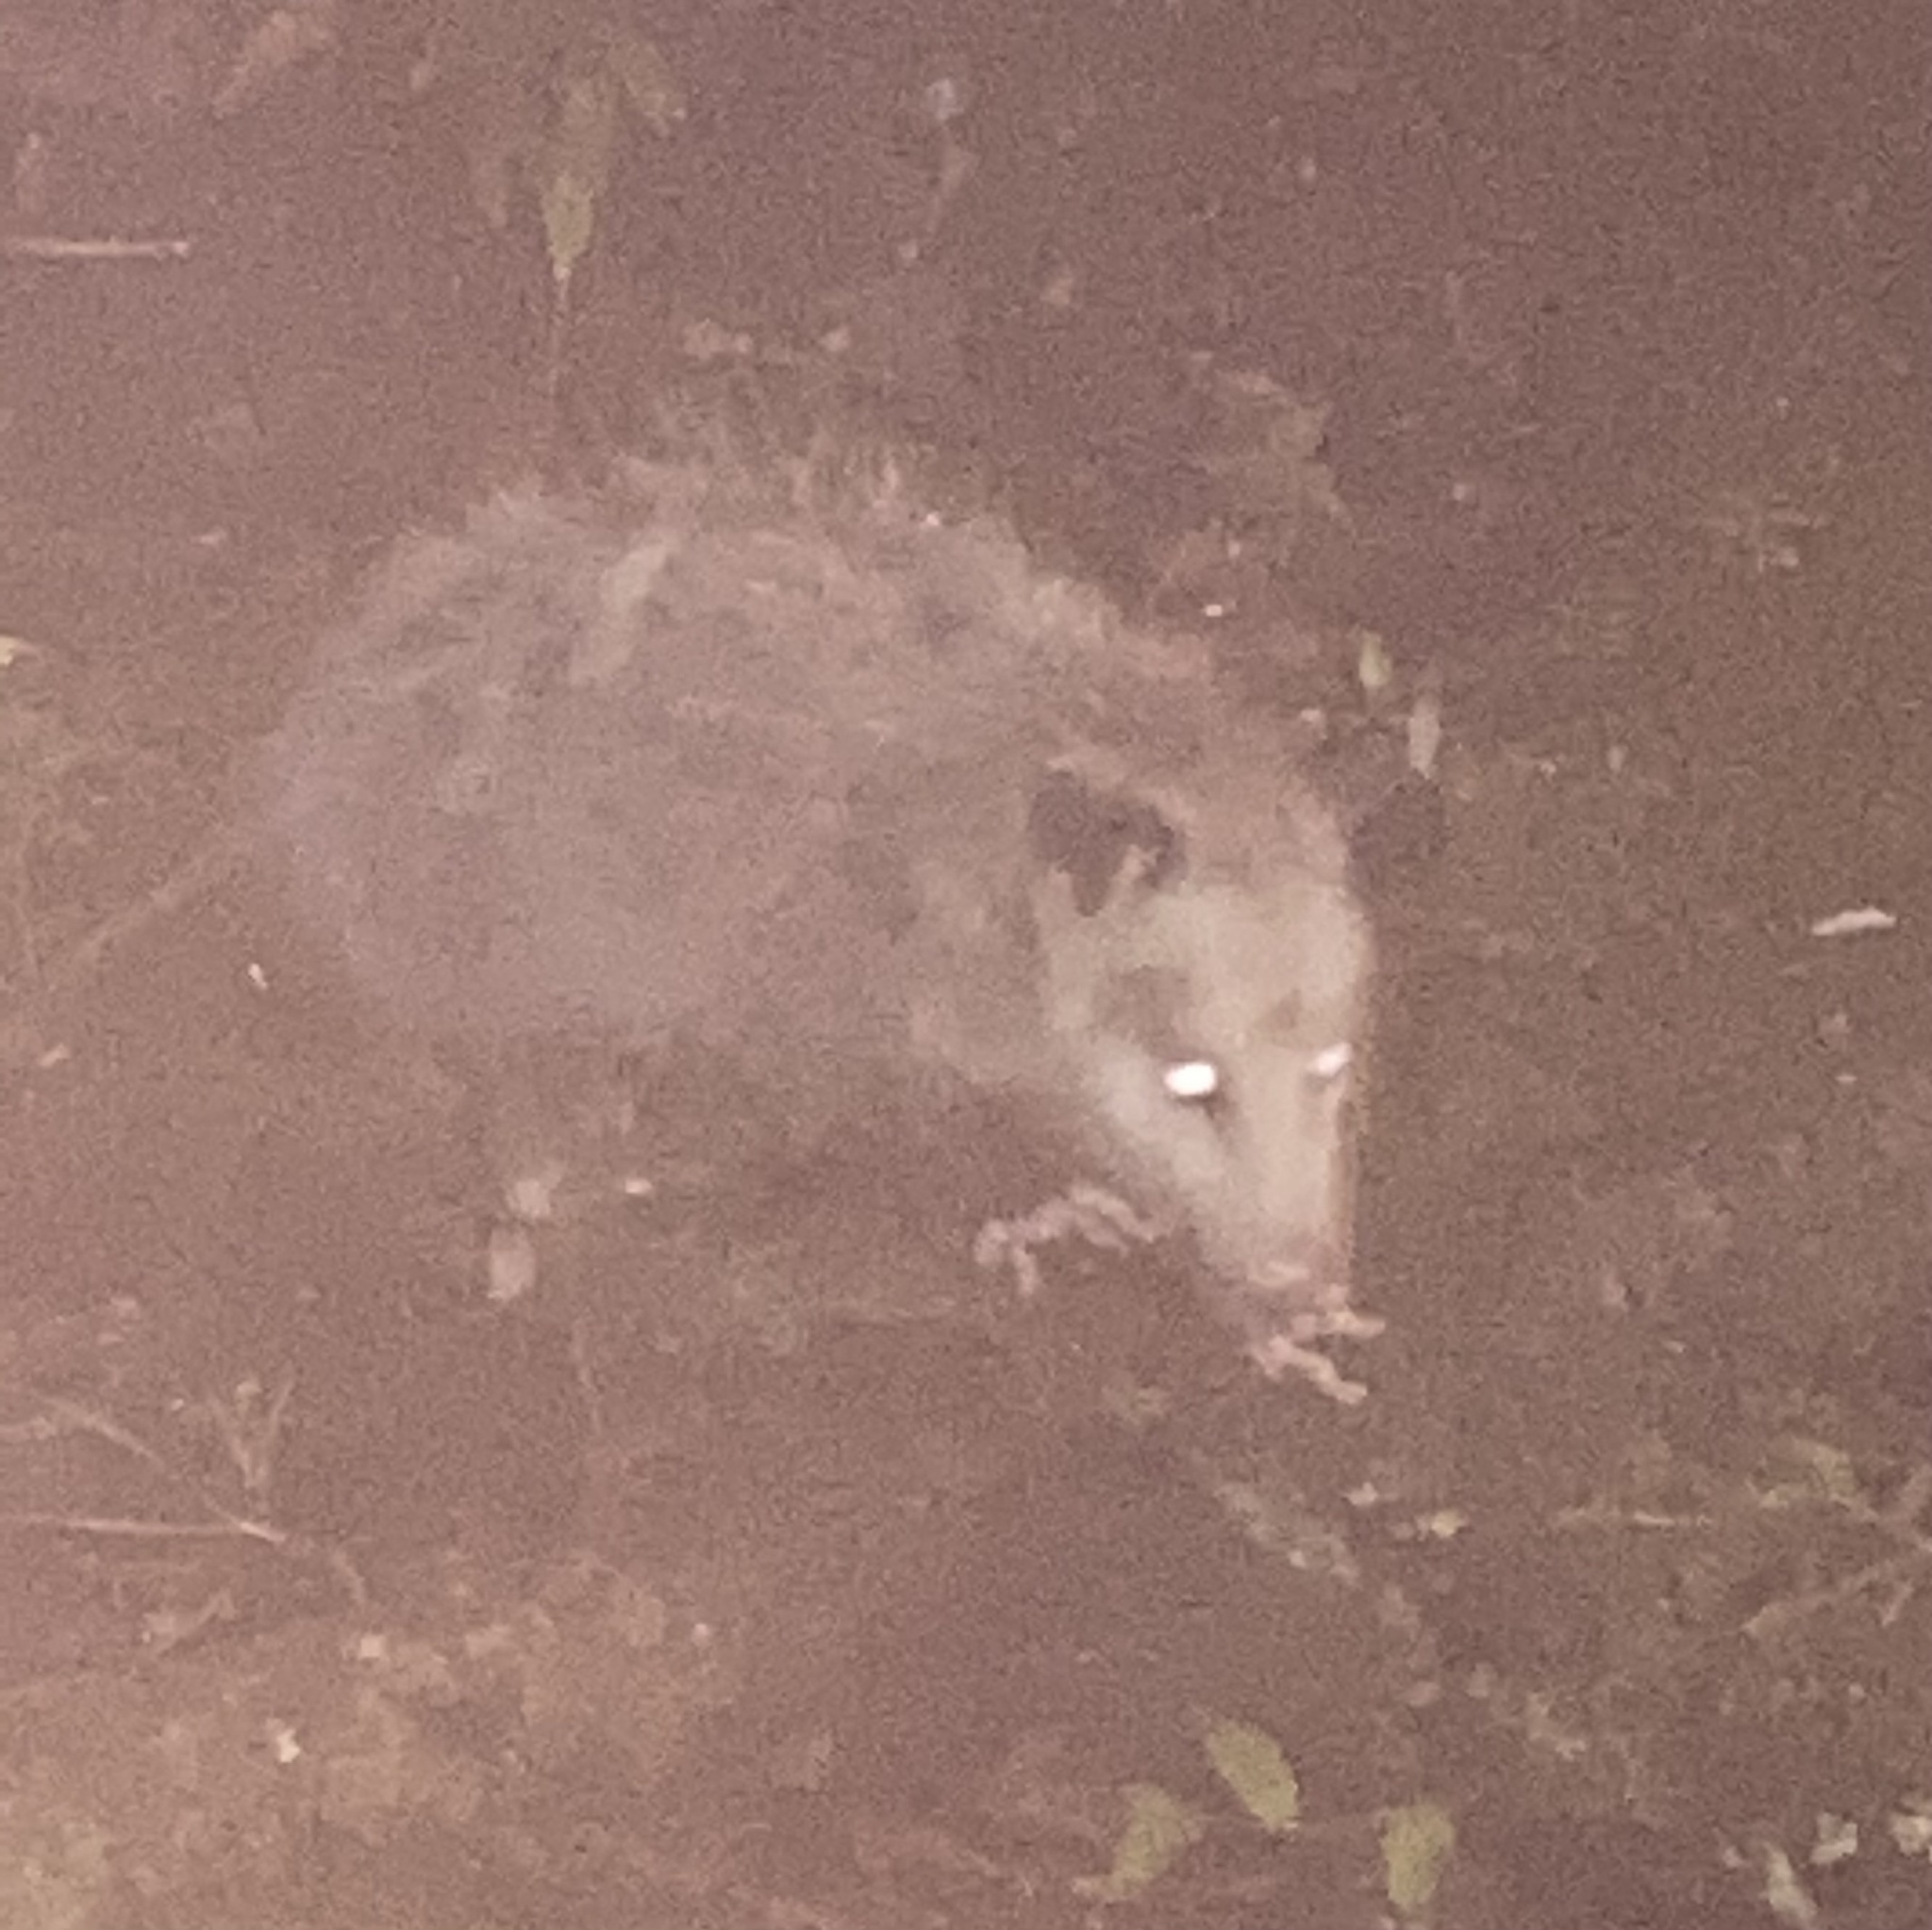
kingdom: Animalia
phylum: Chordata
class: Mammalia
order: Didelphimorphia
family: Didelphidae
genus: Didelphis
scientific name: Didelphis virginiana
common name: Virginia opossum
